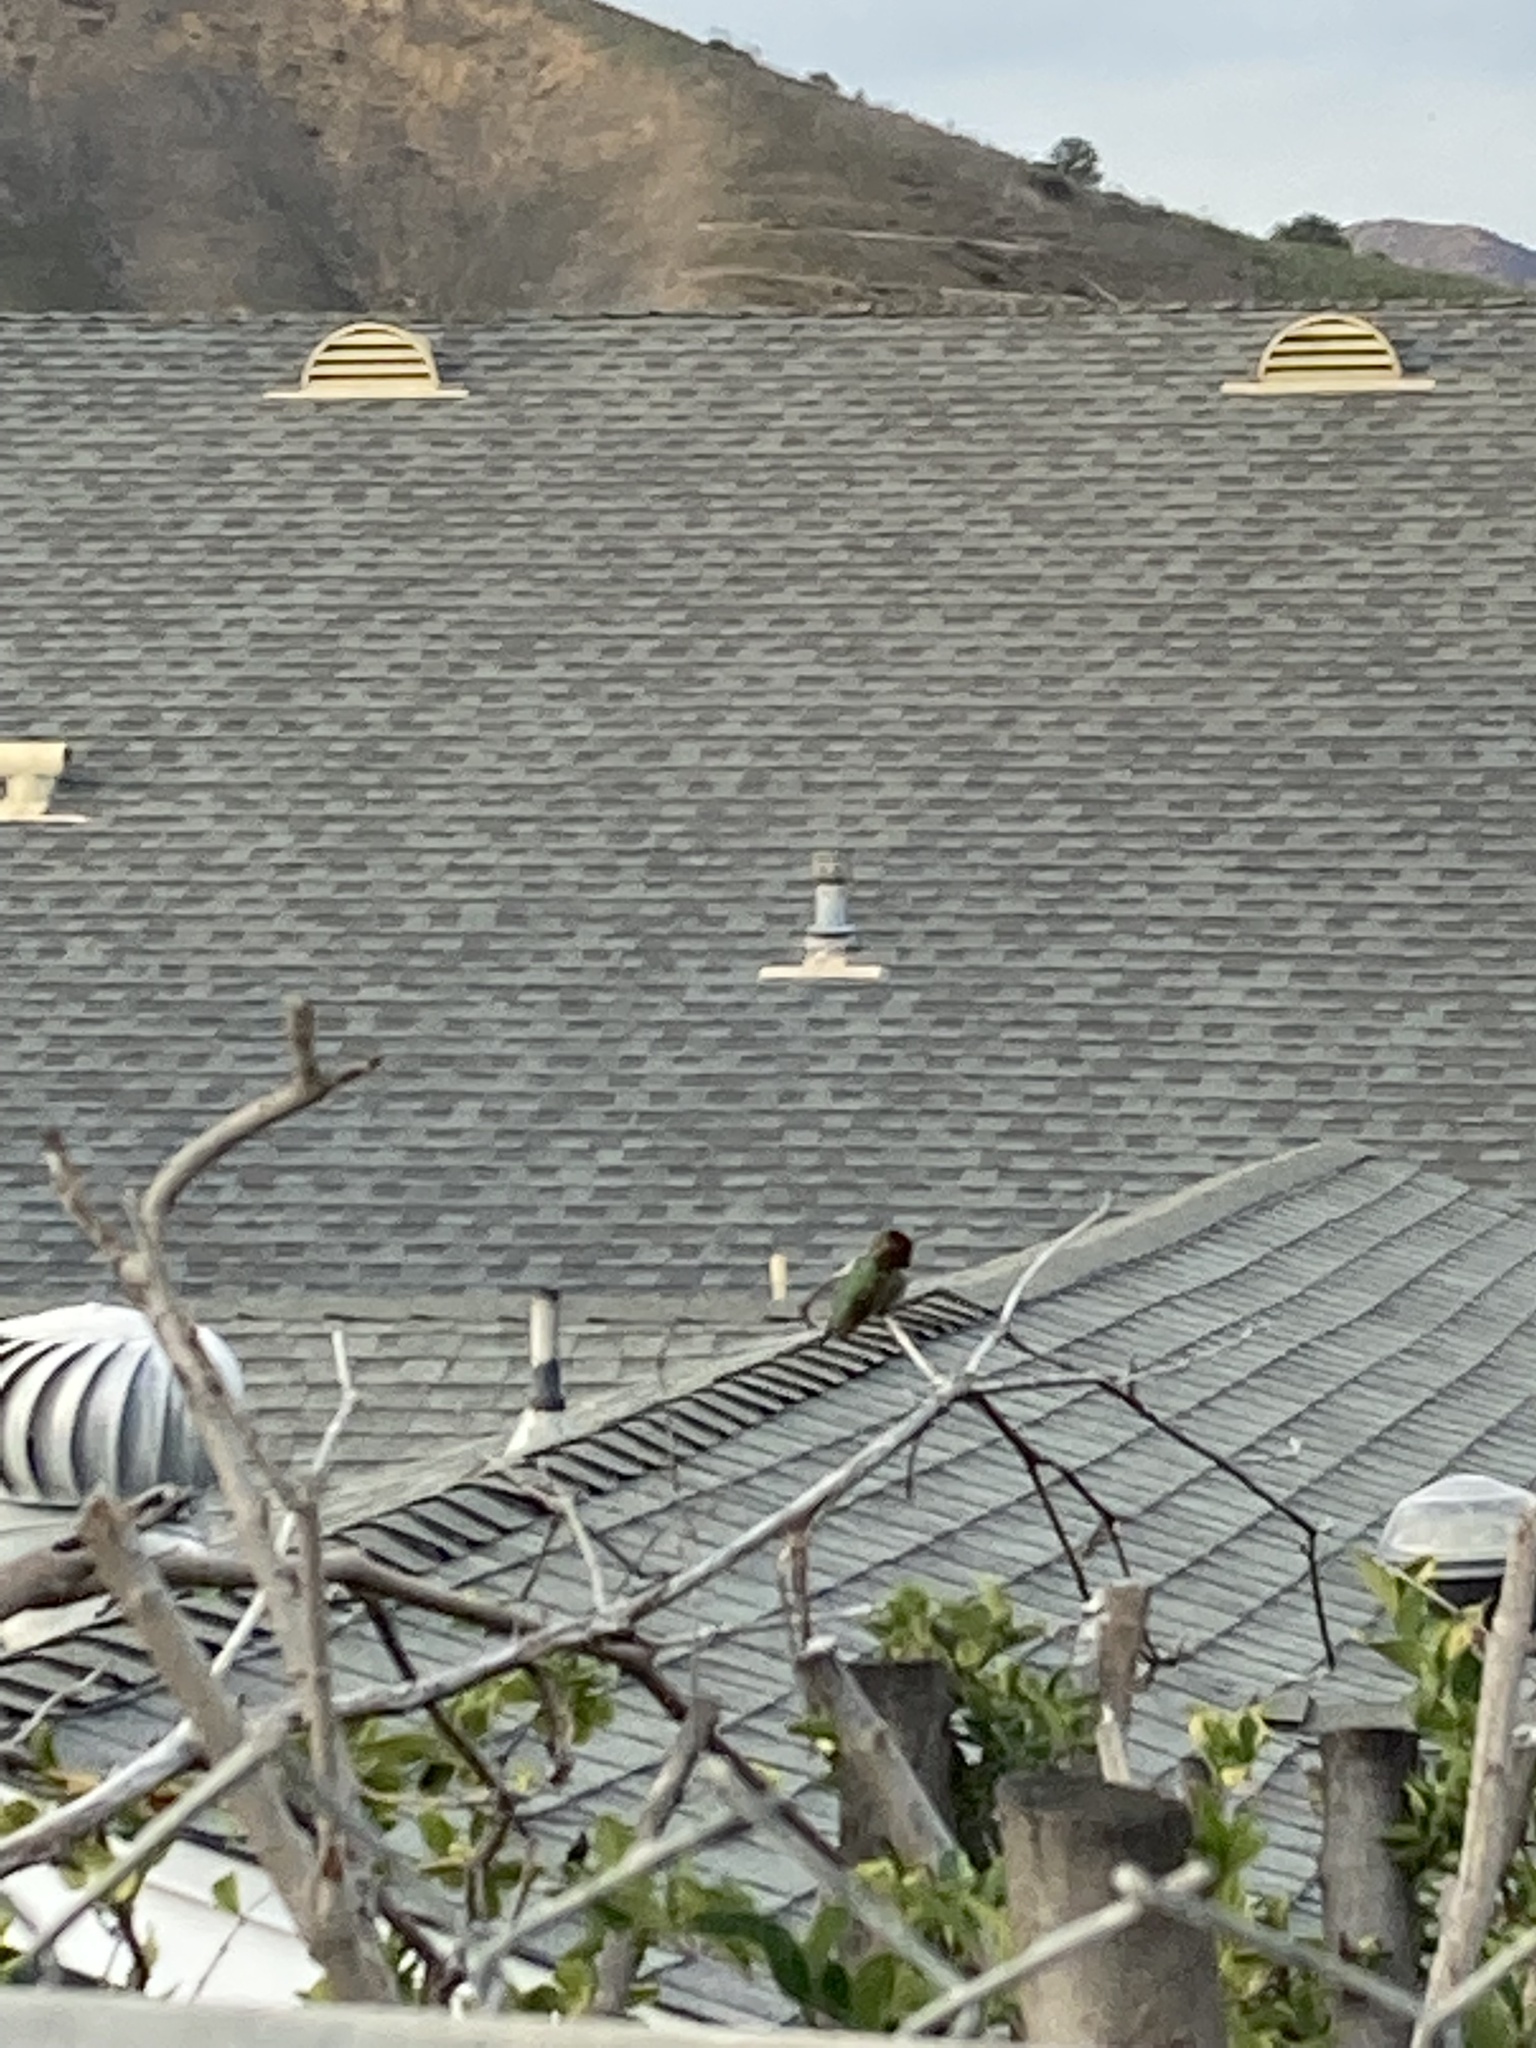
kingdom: Animalia
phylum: Chordata
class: Aves
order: Apodiformes
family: Trochilidae
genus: Calypte
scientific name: Calypte anna
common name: Anna's hummingbird
